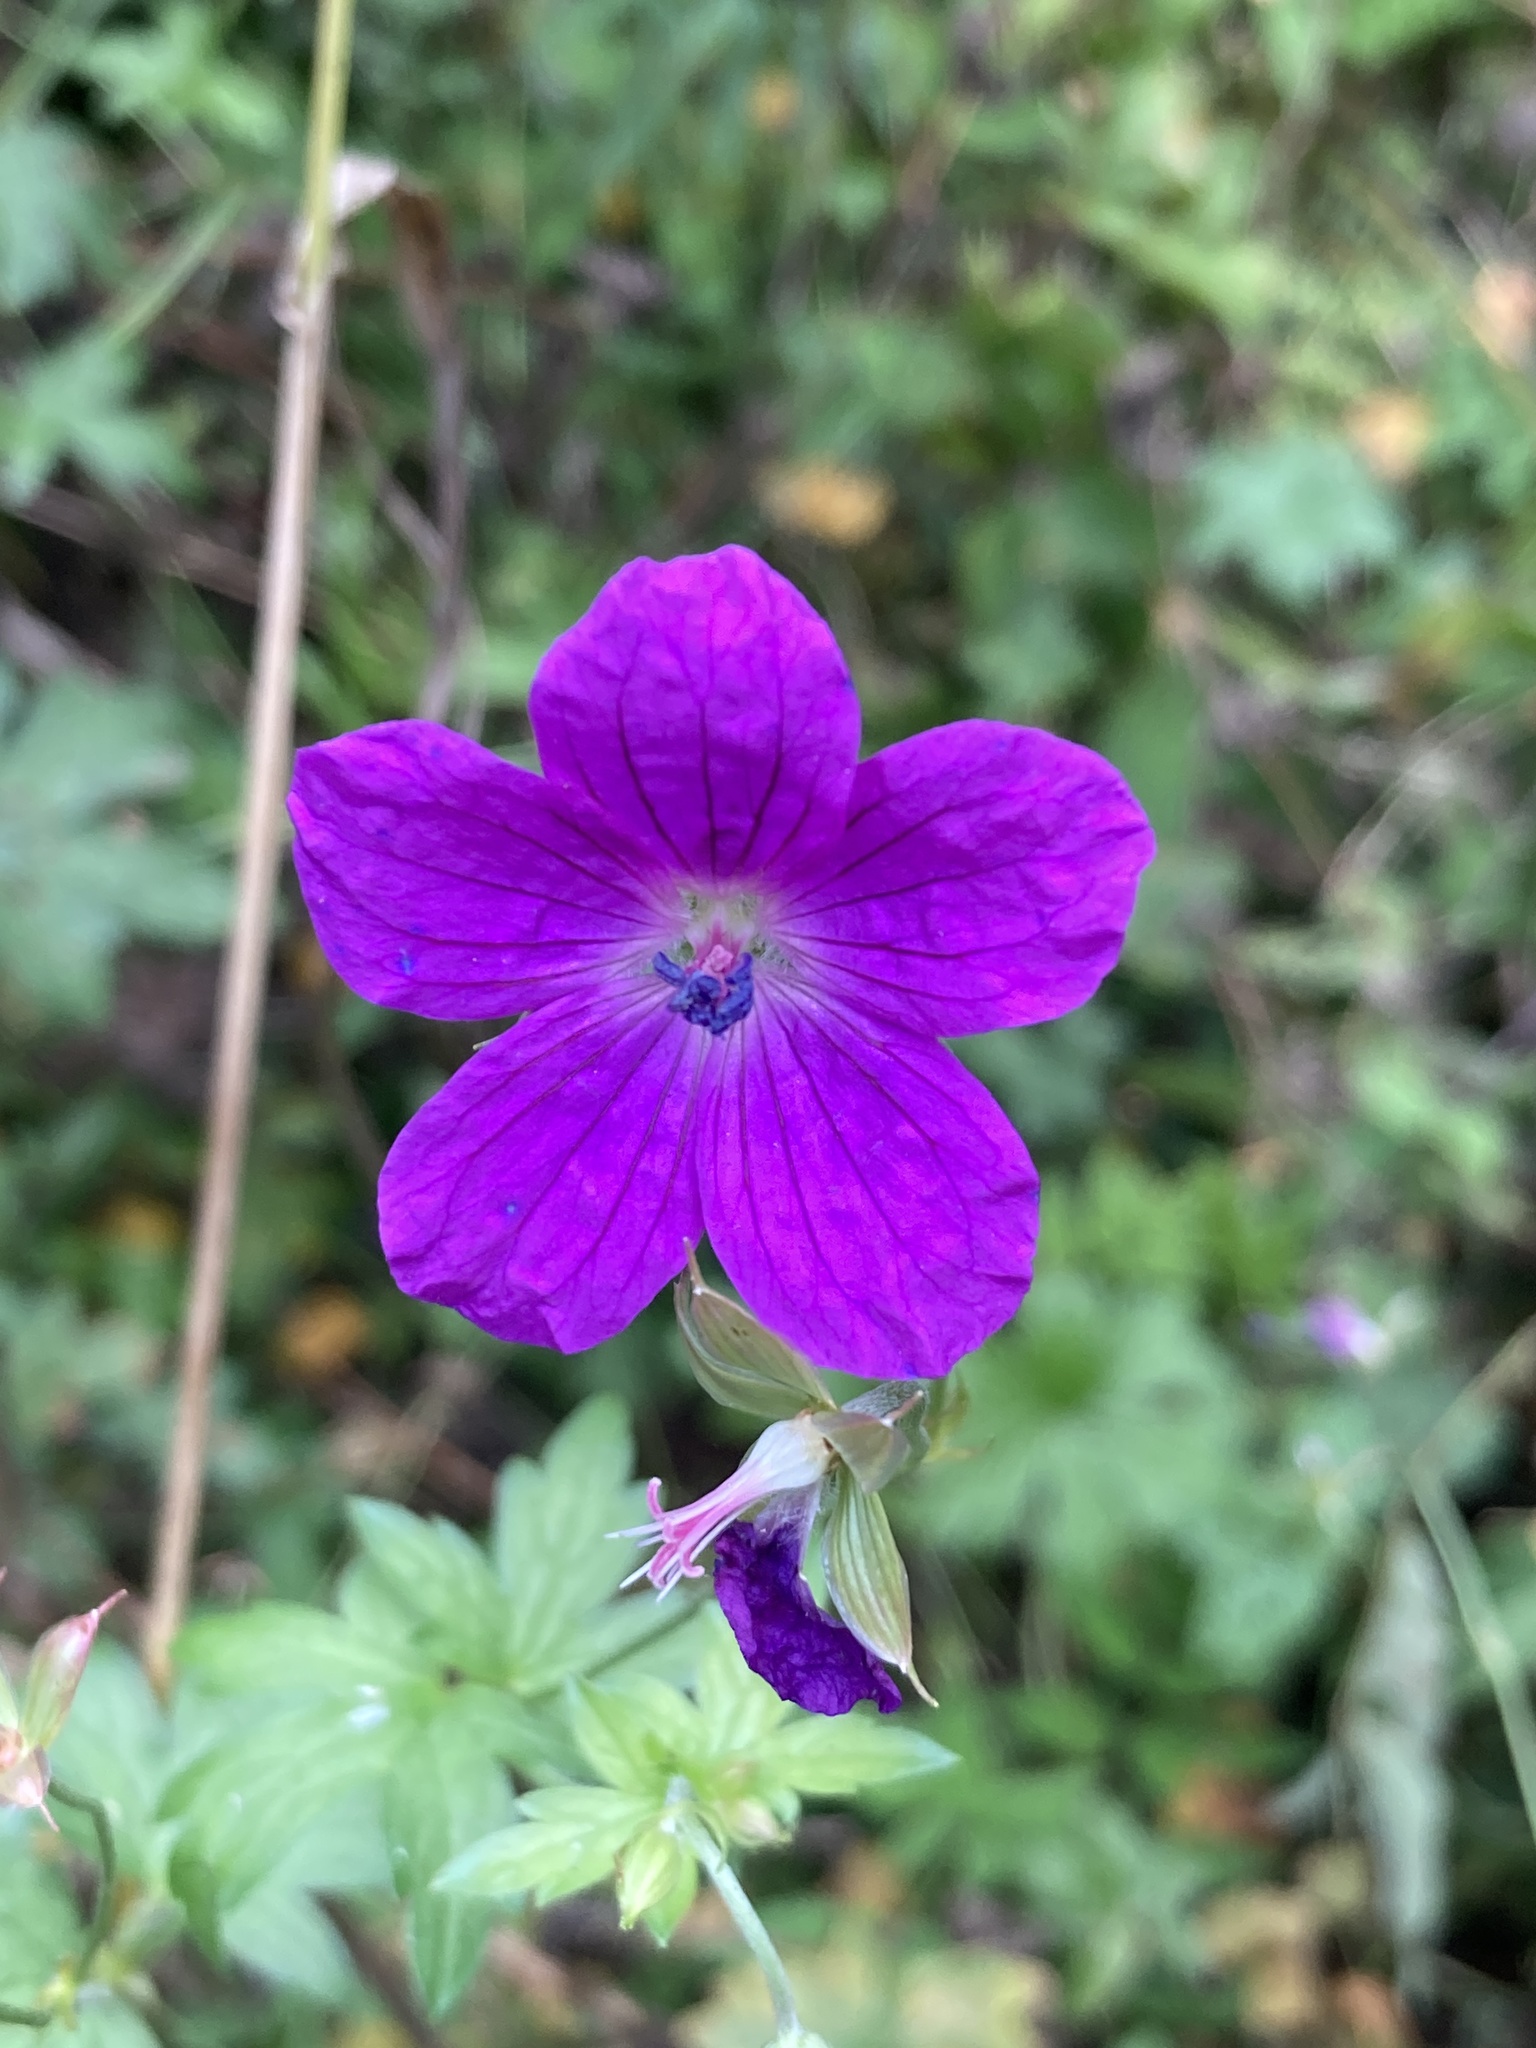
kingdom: Plantae
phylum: Tracheophyta
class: Magnoliopsida
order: Geraniales
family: Geraniaceae
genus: Geranium
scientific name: Geranium palustre
